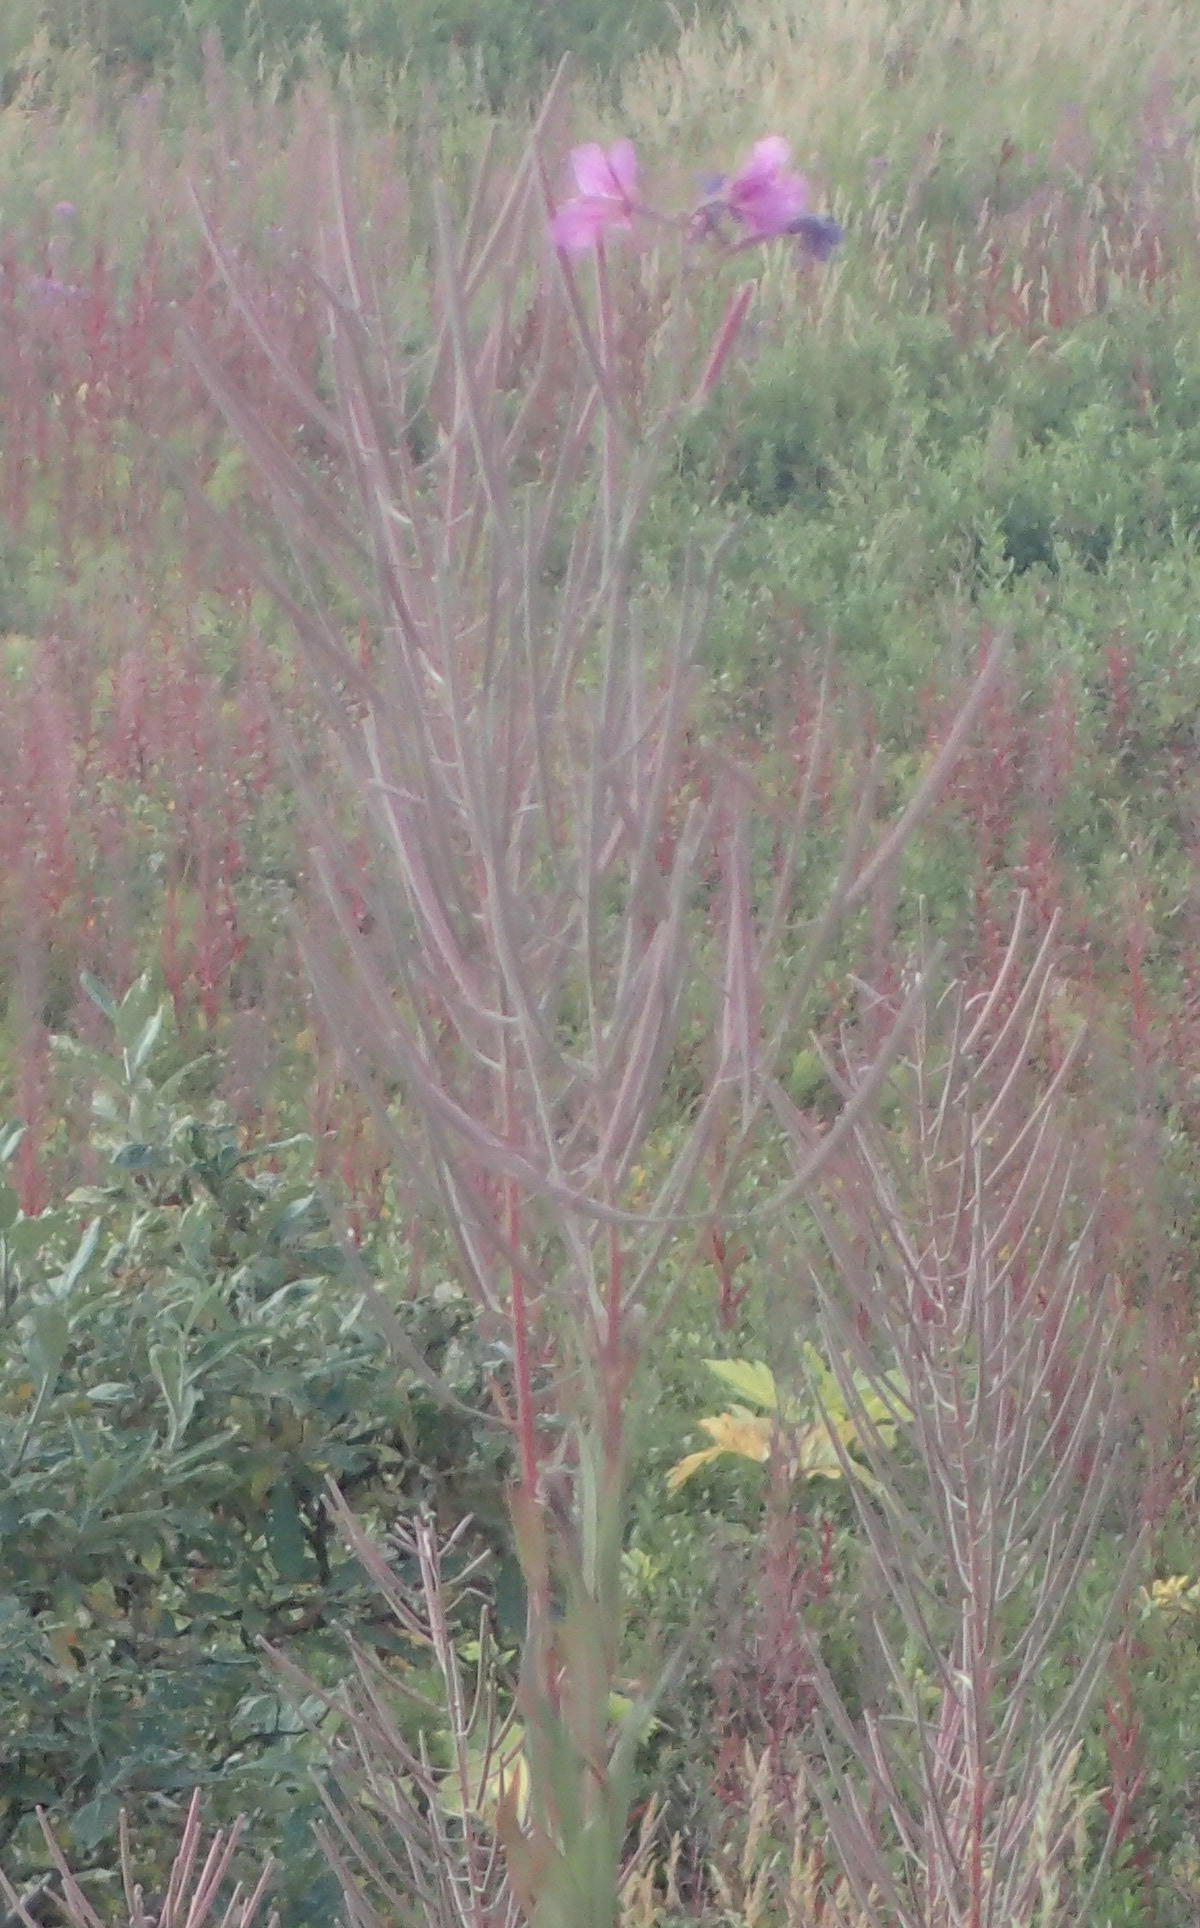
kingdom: Plantae
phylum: Tracheophyta
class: Magnoliopsida
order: Myrtales
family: Onagraceae
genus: Chamaenerion
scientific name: Chamaenerion angustifolium
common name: Fireweed
